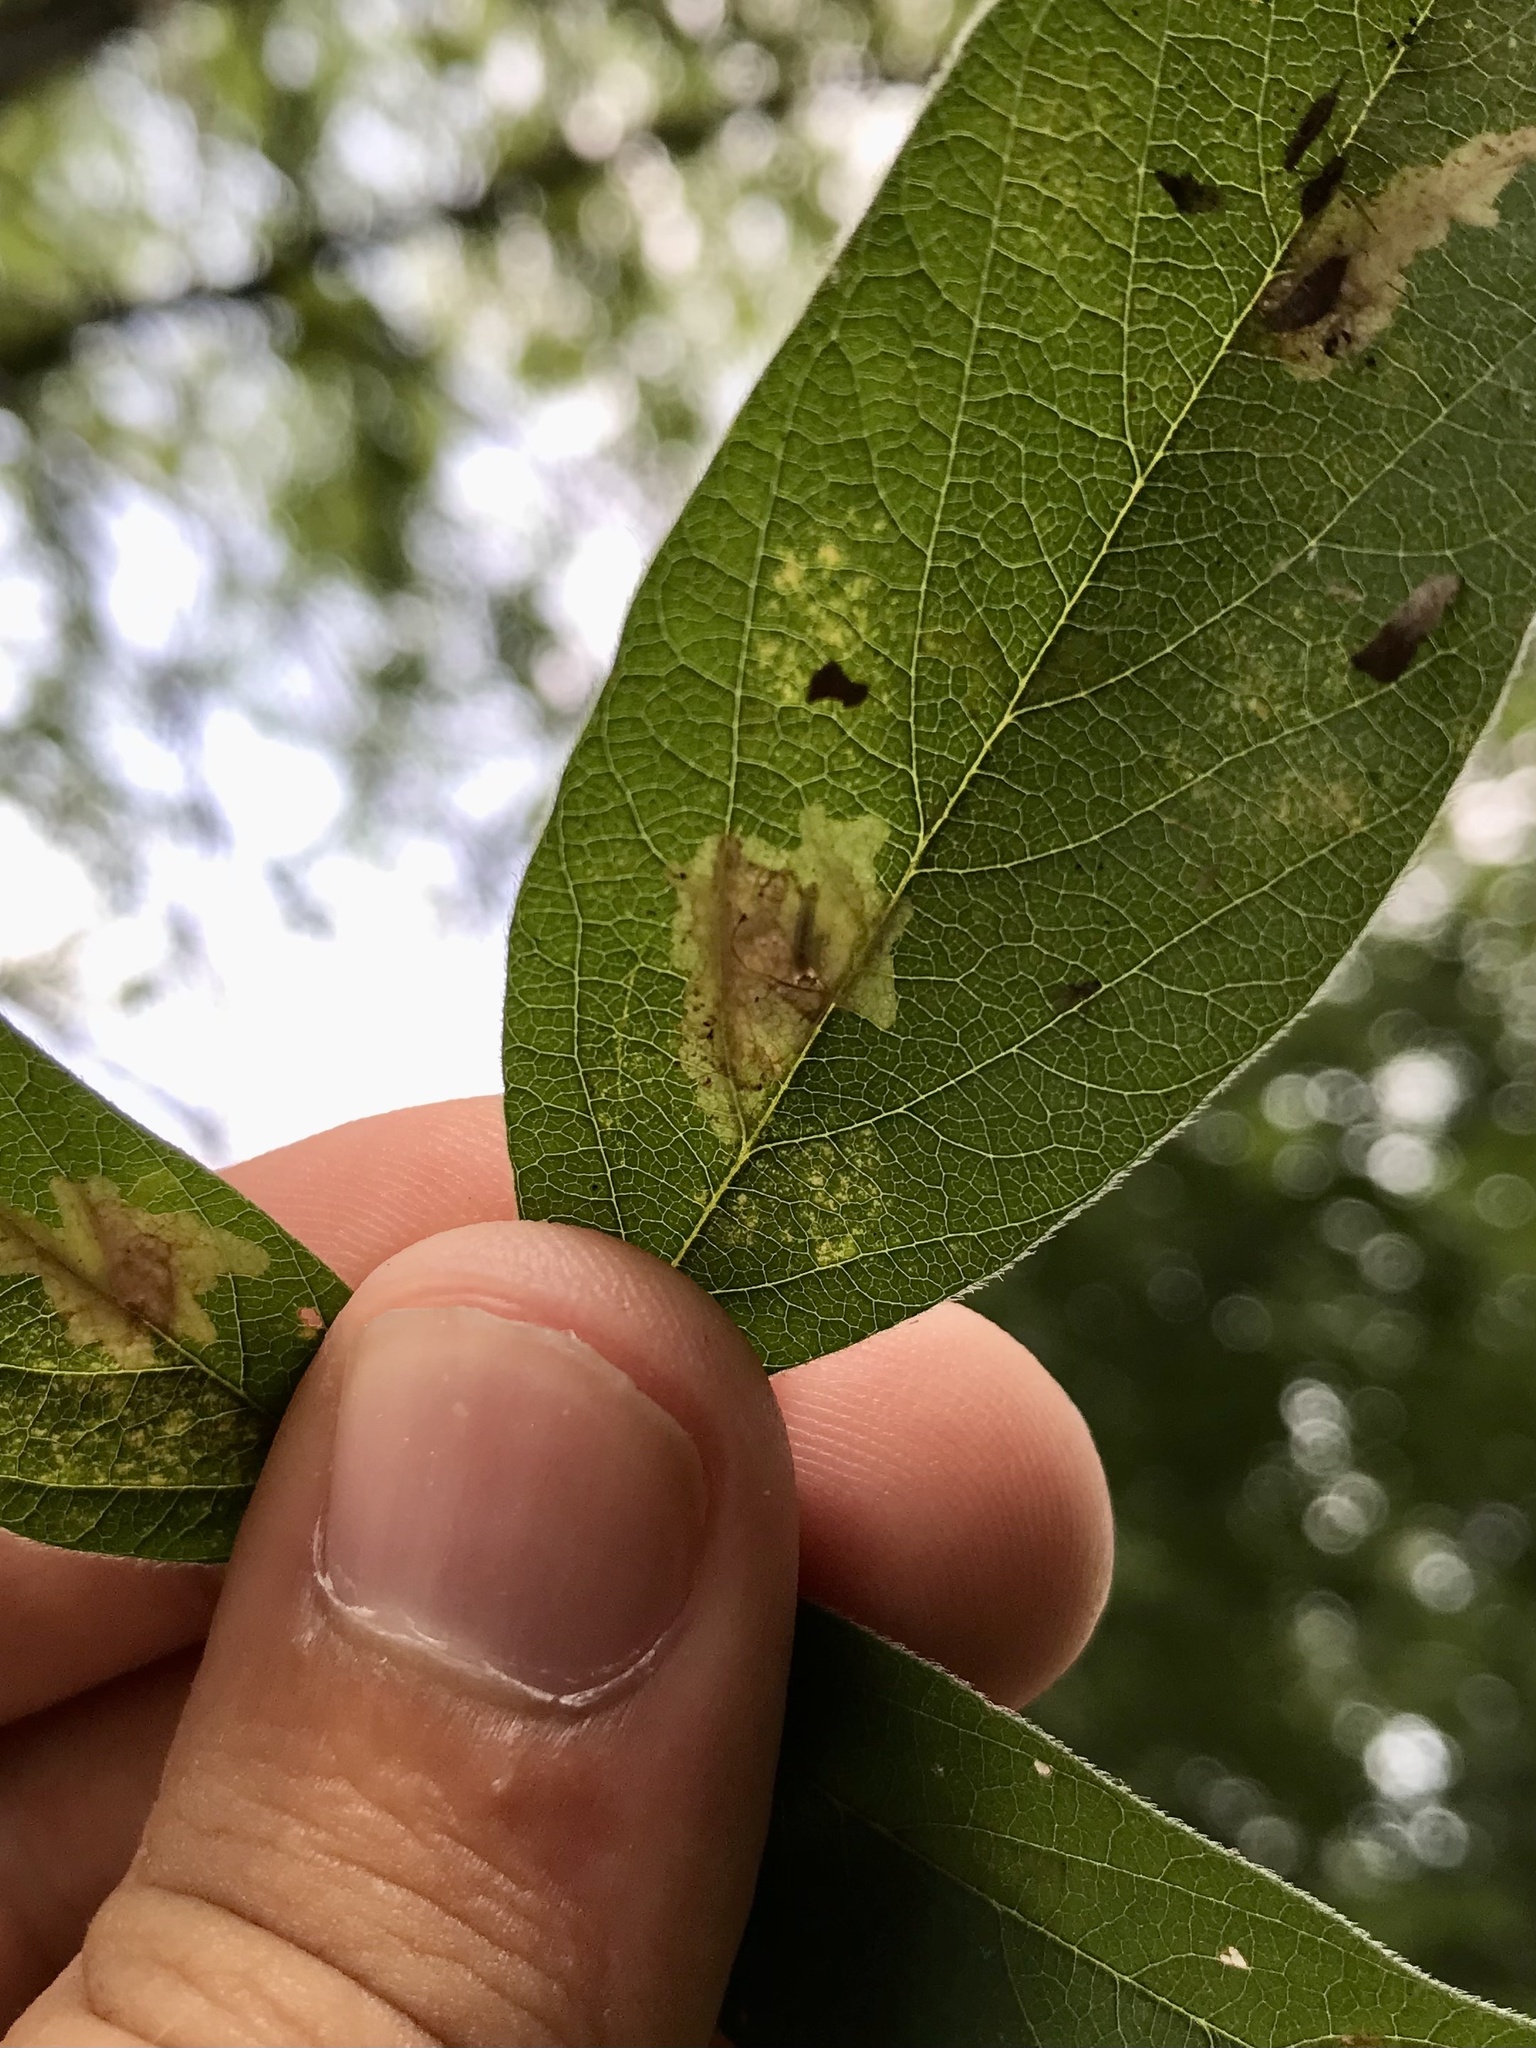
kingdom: Animalia
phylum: Arthropoda
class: Insecta
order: Lepidoptera
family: Gracillariidae
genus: Parectopa
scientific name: Parectopa robiniella
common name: Locust digitate leafminer
